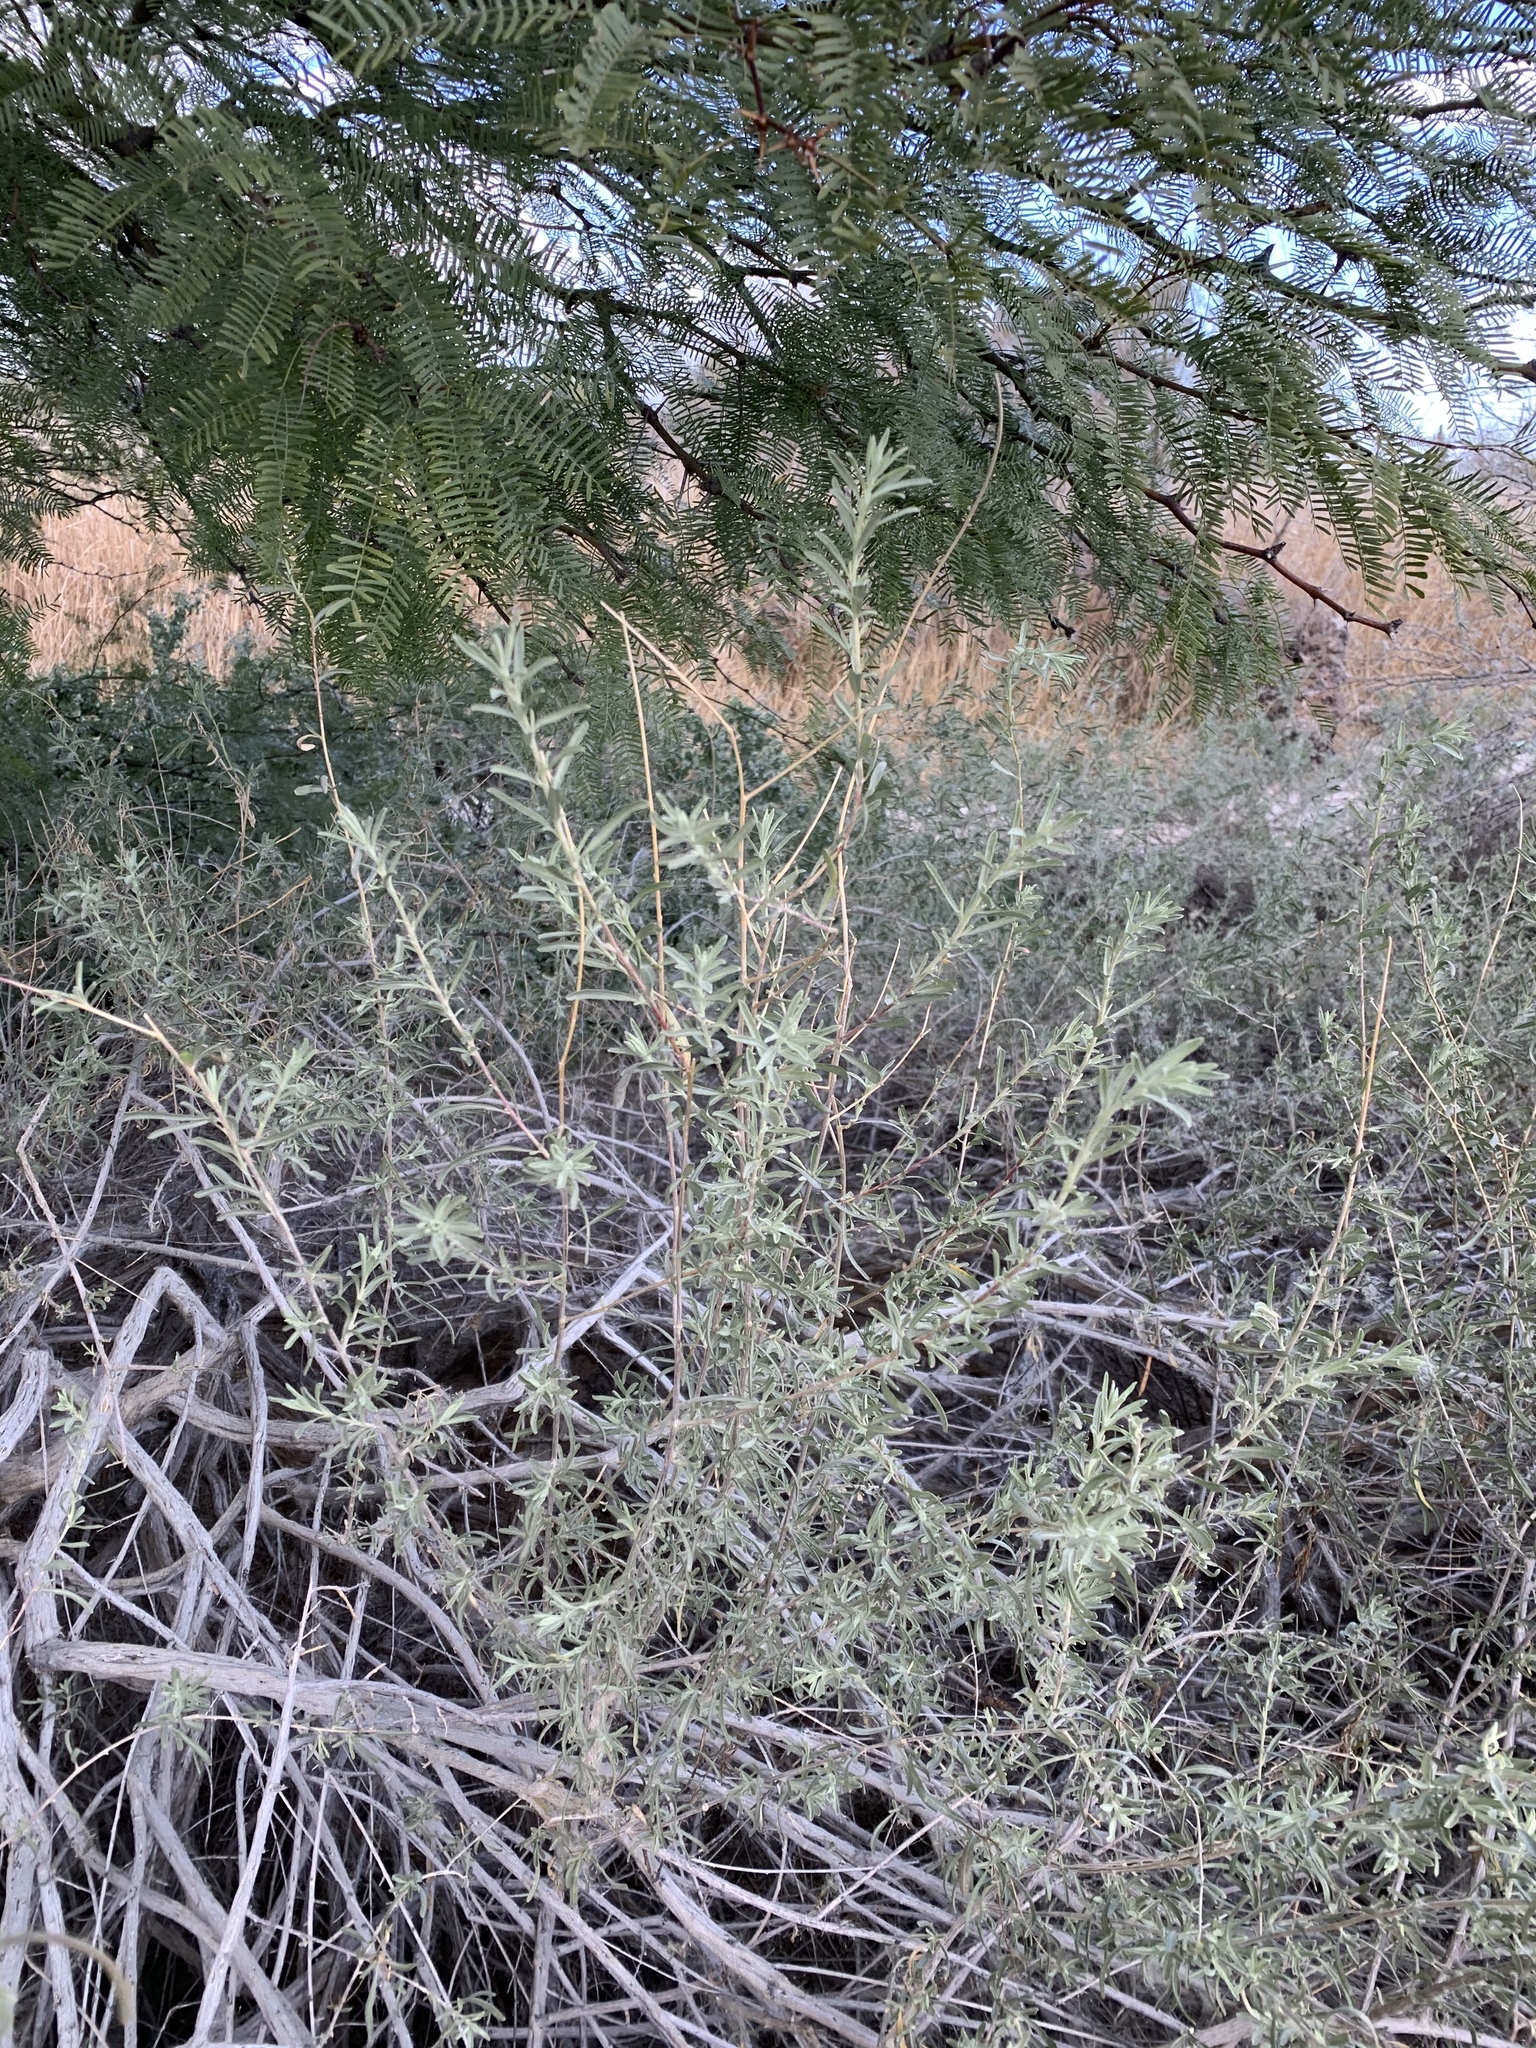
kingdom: Plantae
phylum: Tracheophyta
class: Magnoliopsida
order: Caryophyllales
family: Amaranthaceae
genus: Atriplex
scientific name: Atriplex canescens
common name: Four-wing saltbush
